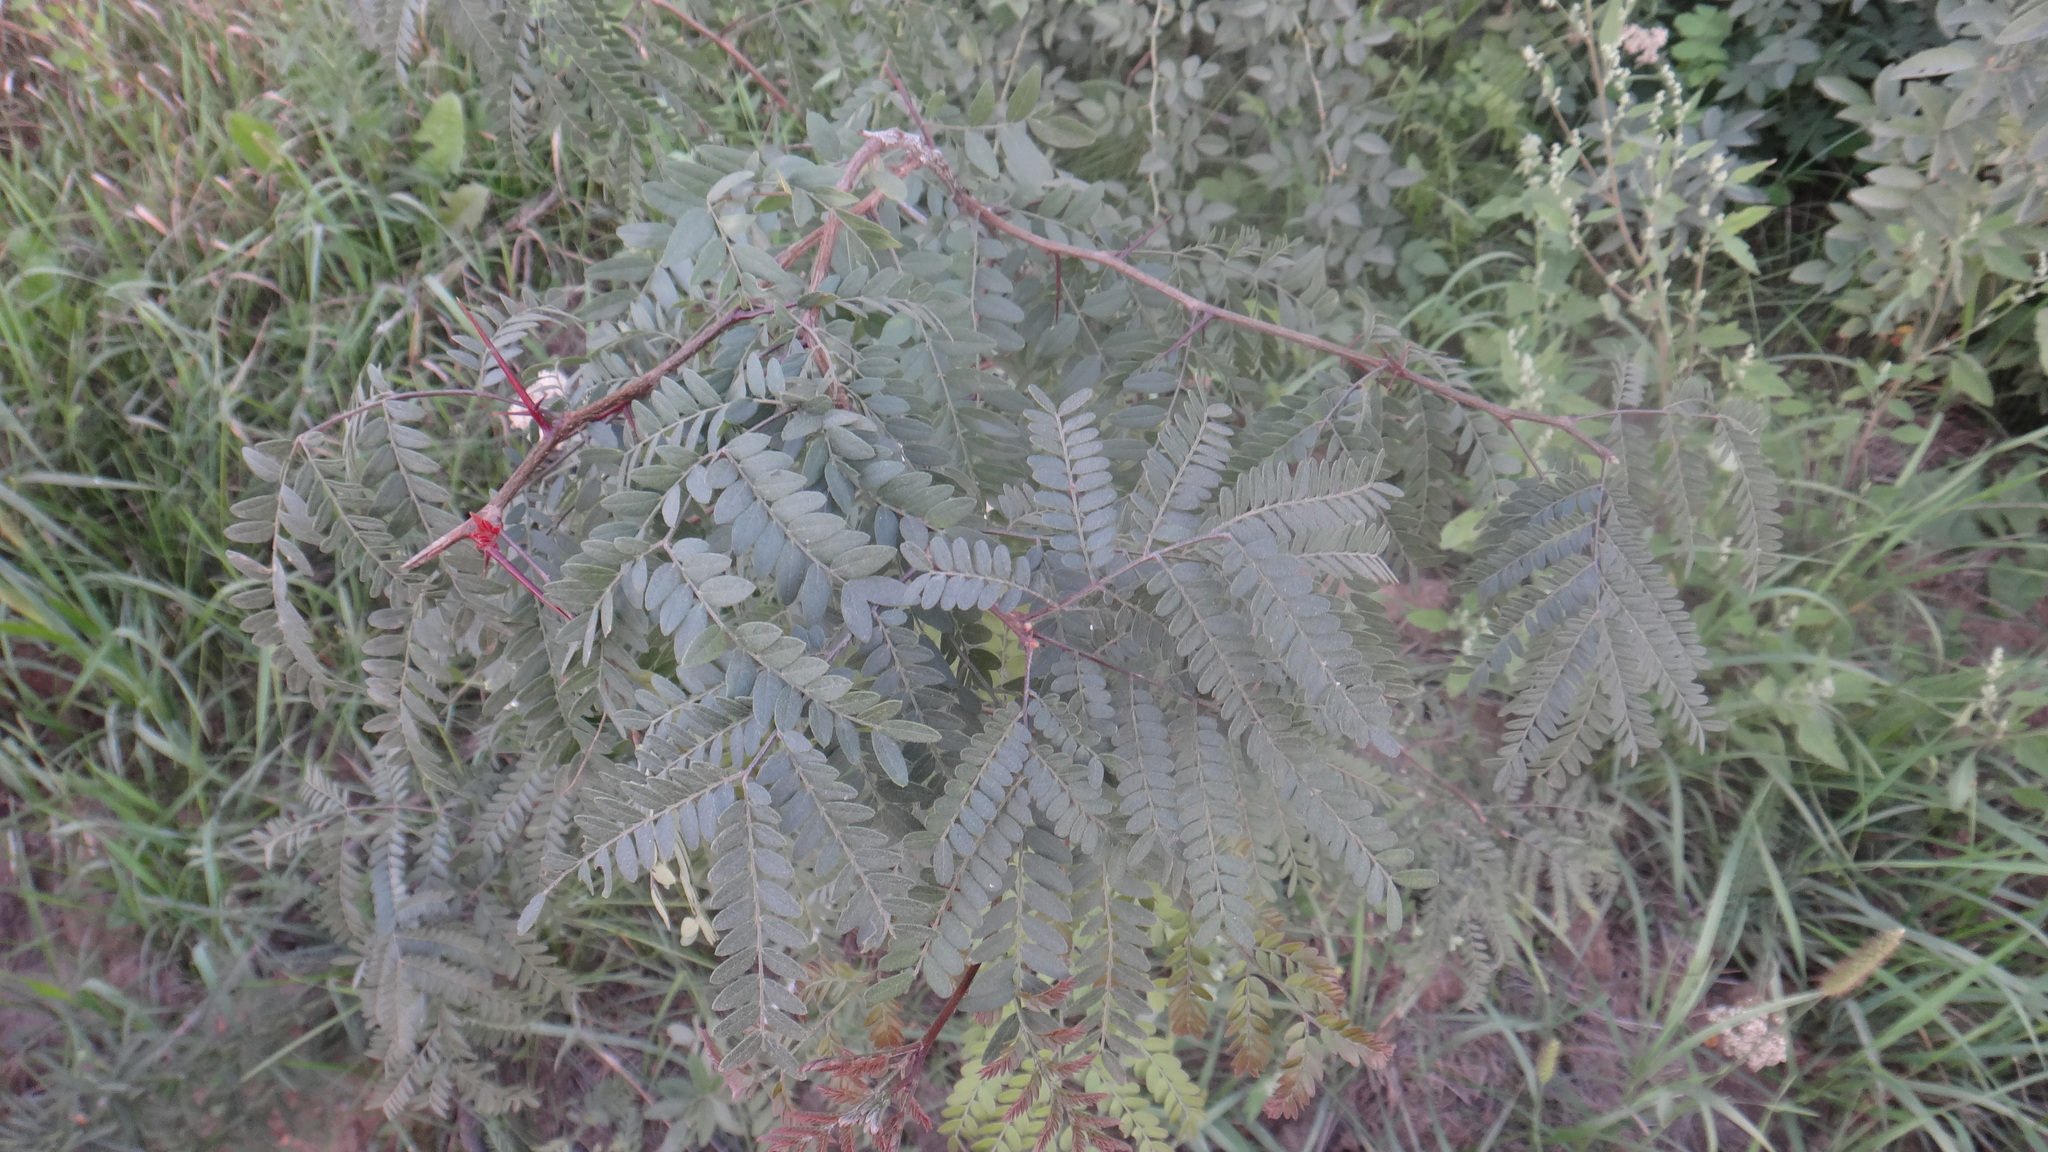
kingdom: Plantae
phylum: Tracheophyta
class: Magnoliopsida
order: Fabales
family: Fabaceae
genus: Gleditsia
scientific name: Gleditsia triacanthos
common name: Common honeylocust
